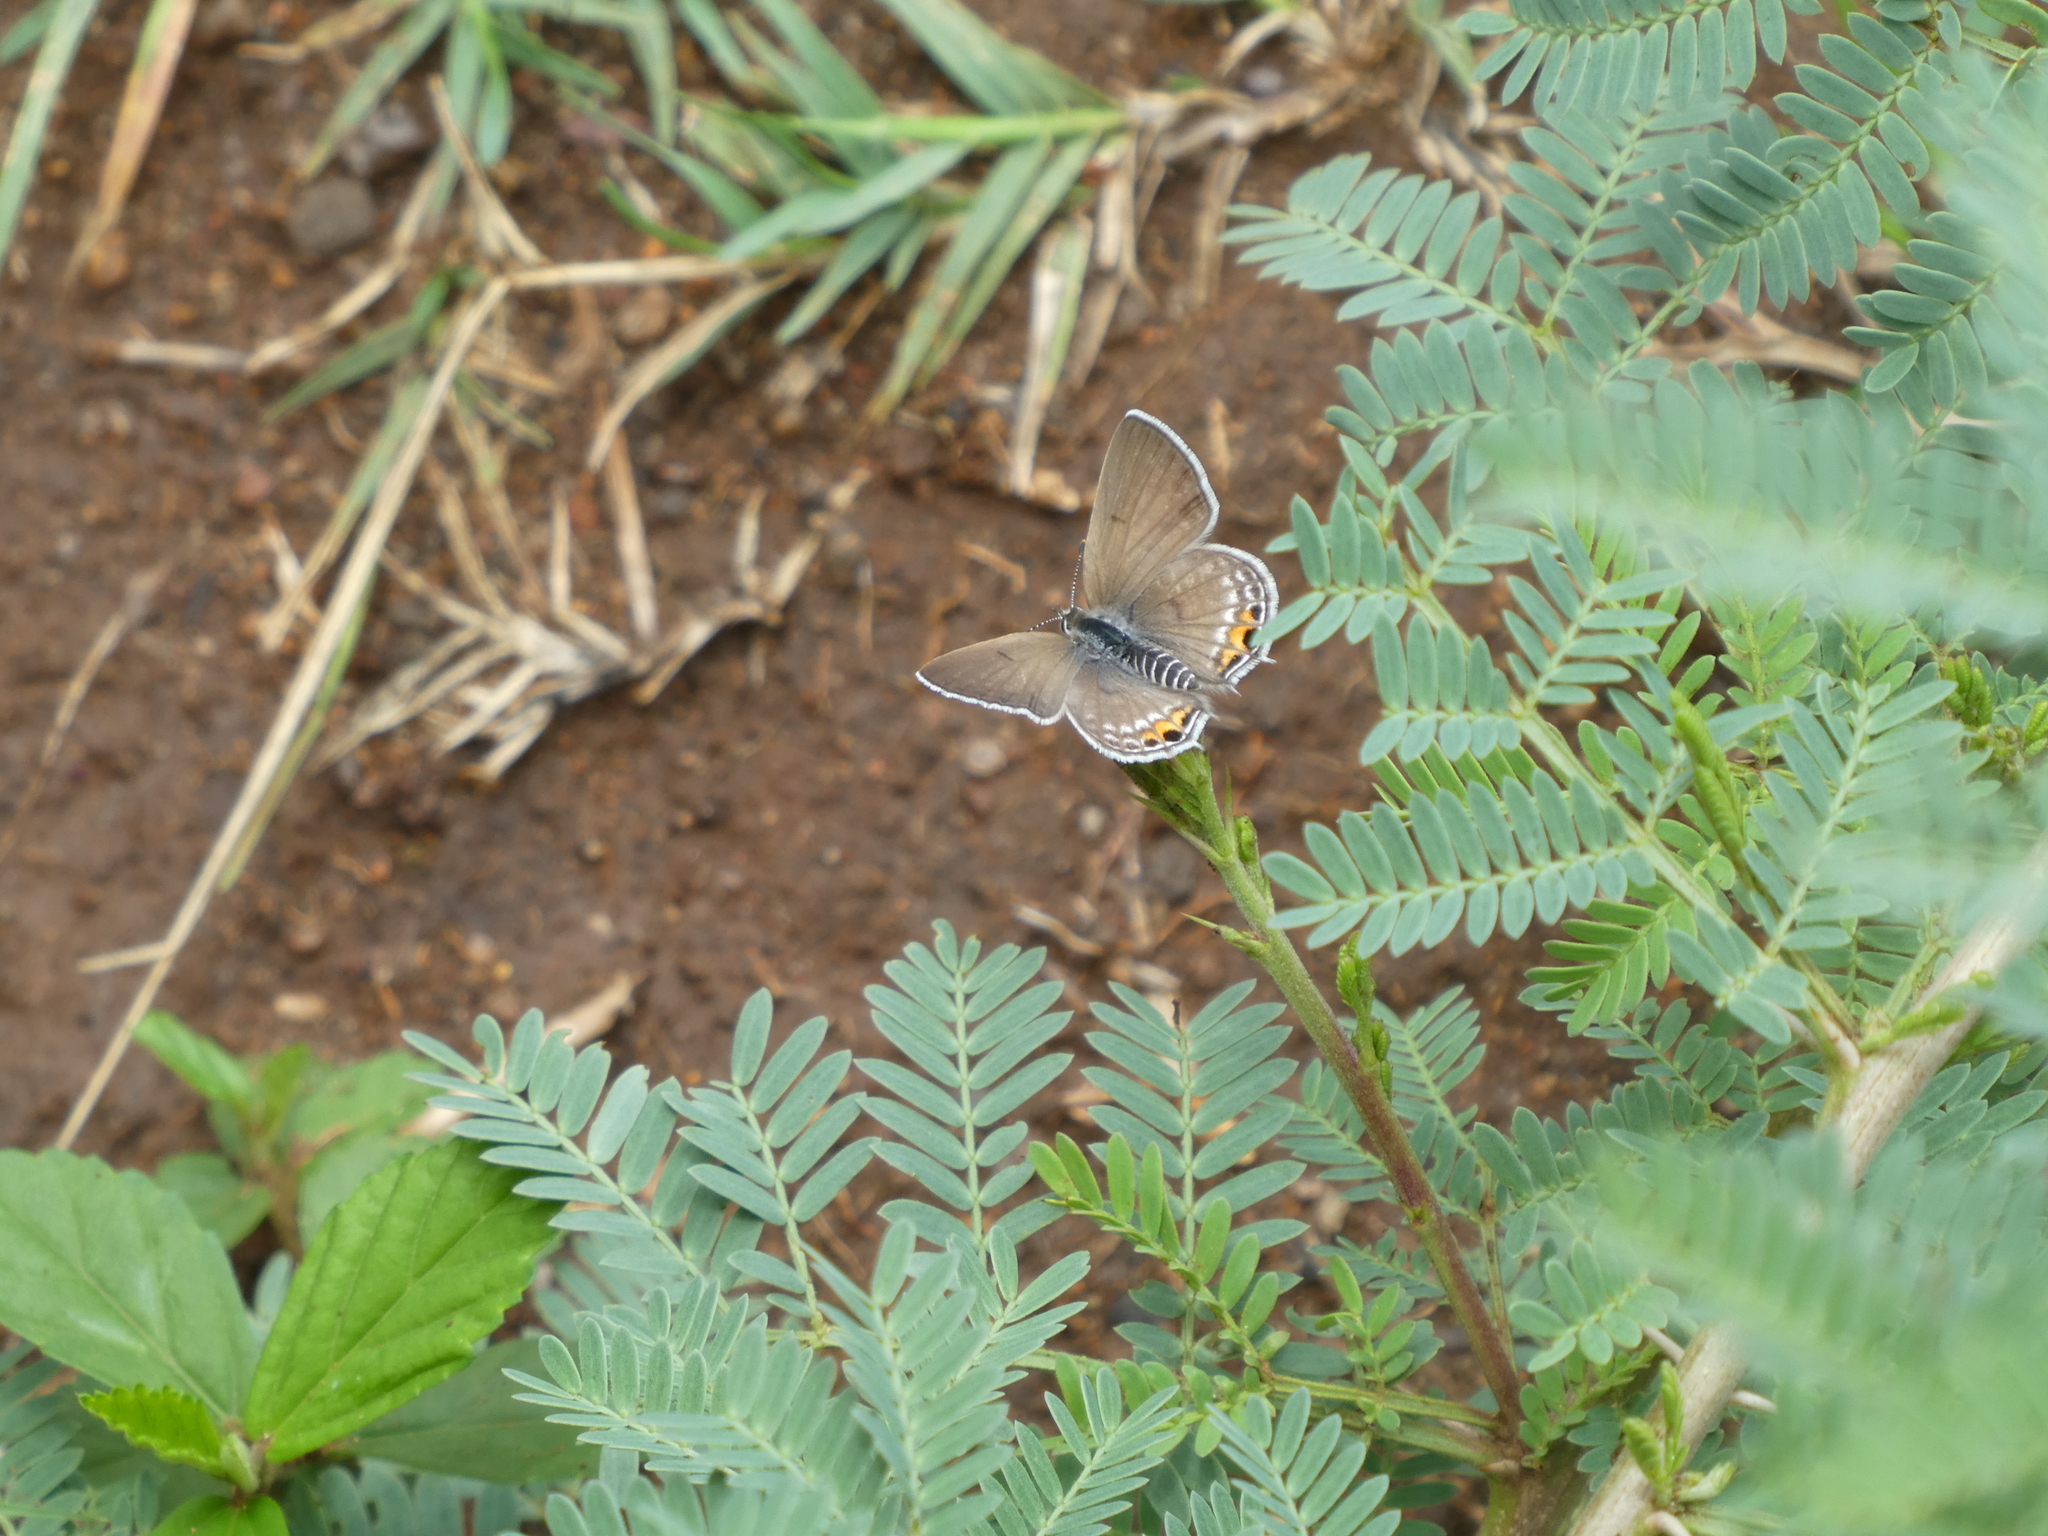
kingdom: Animalia
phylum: Arthropoda
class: Insecta
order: Lepidoptera
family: Lycaenidae
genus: Anthene
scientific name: Anthene amarah
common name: Black-striped hairtail
